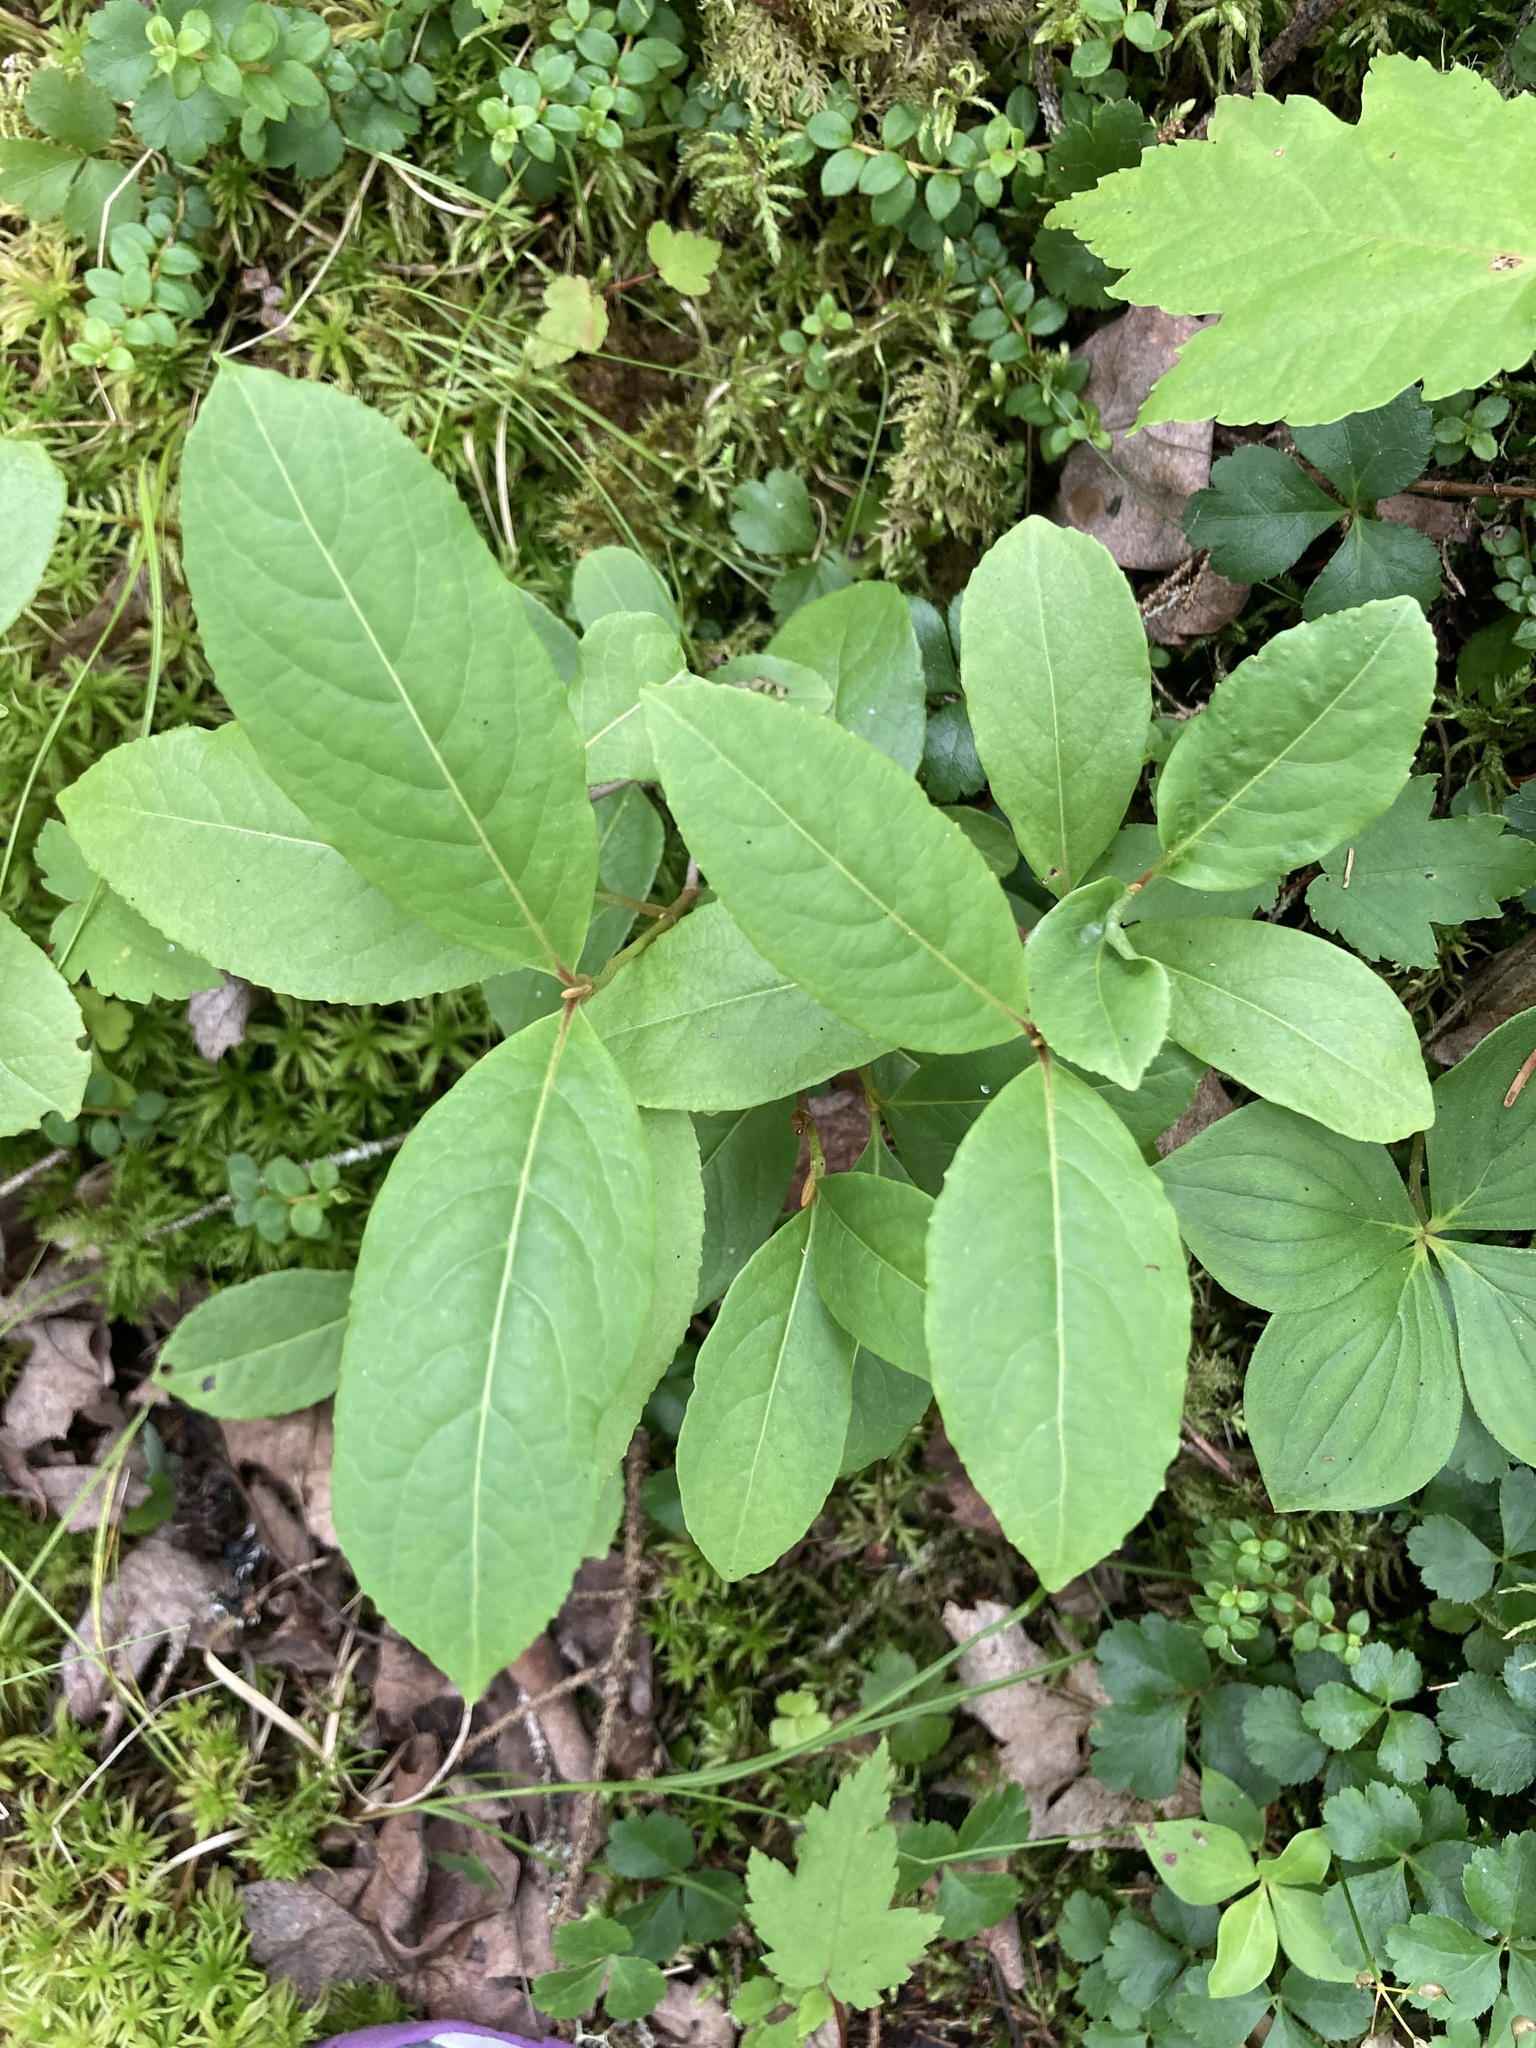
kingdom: Plantae
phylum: Tracheophyta
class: Magnoliopsida
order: Dipsacales
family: Viburnaceae
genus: Viburnum
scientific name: Viburnum cassinoides
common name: Swamp haw
